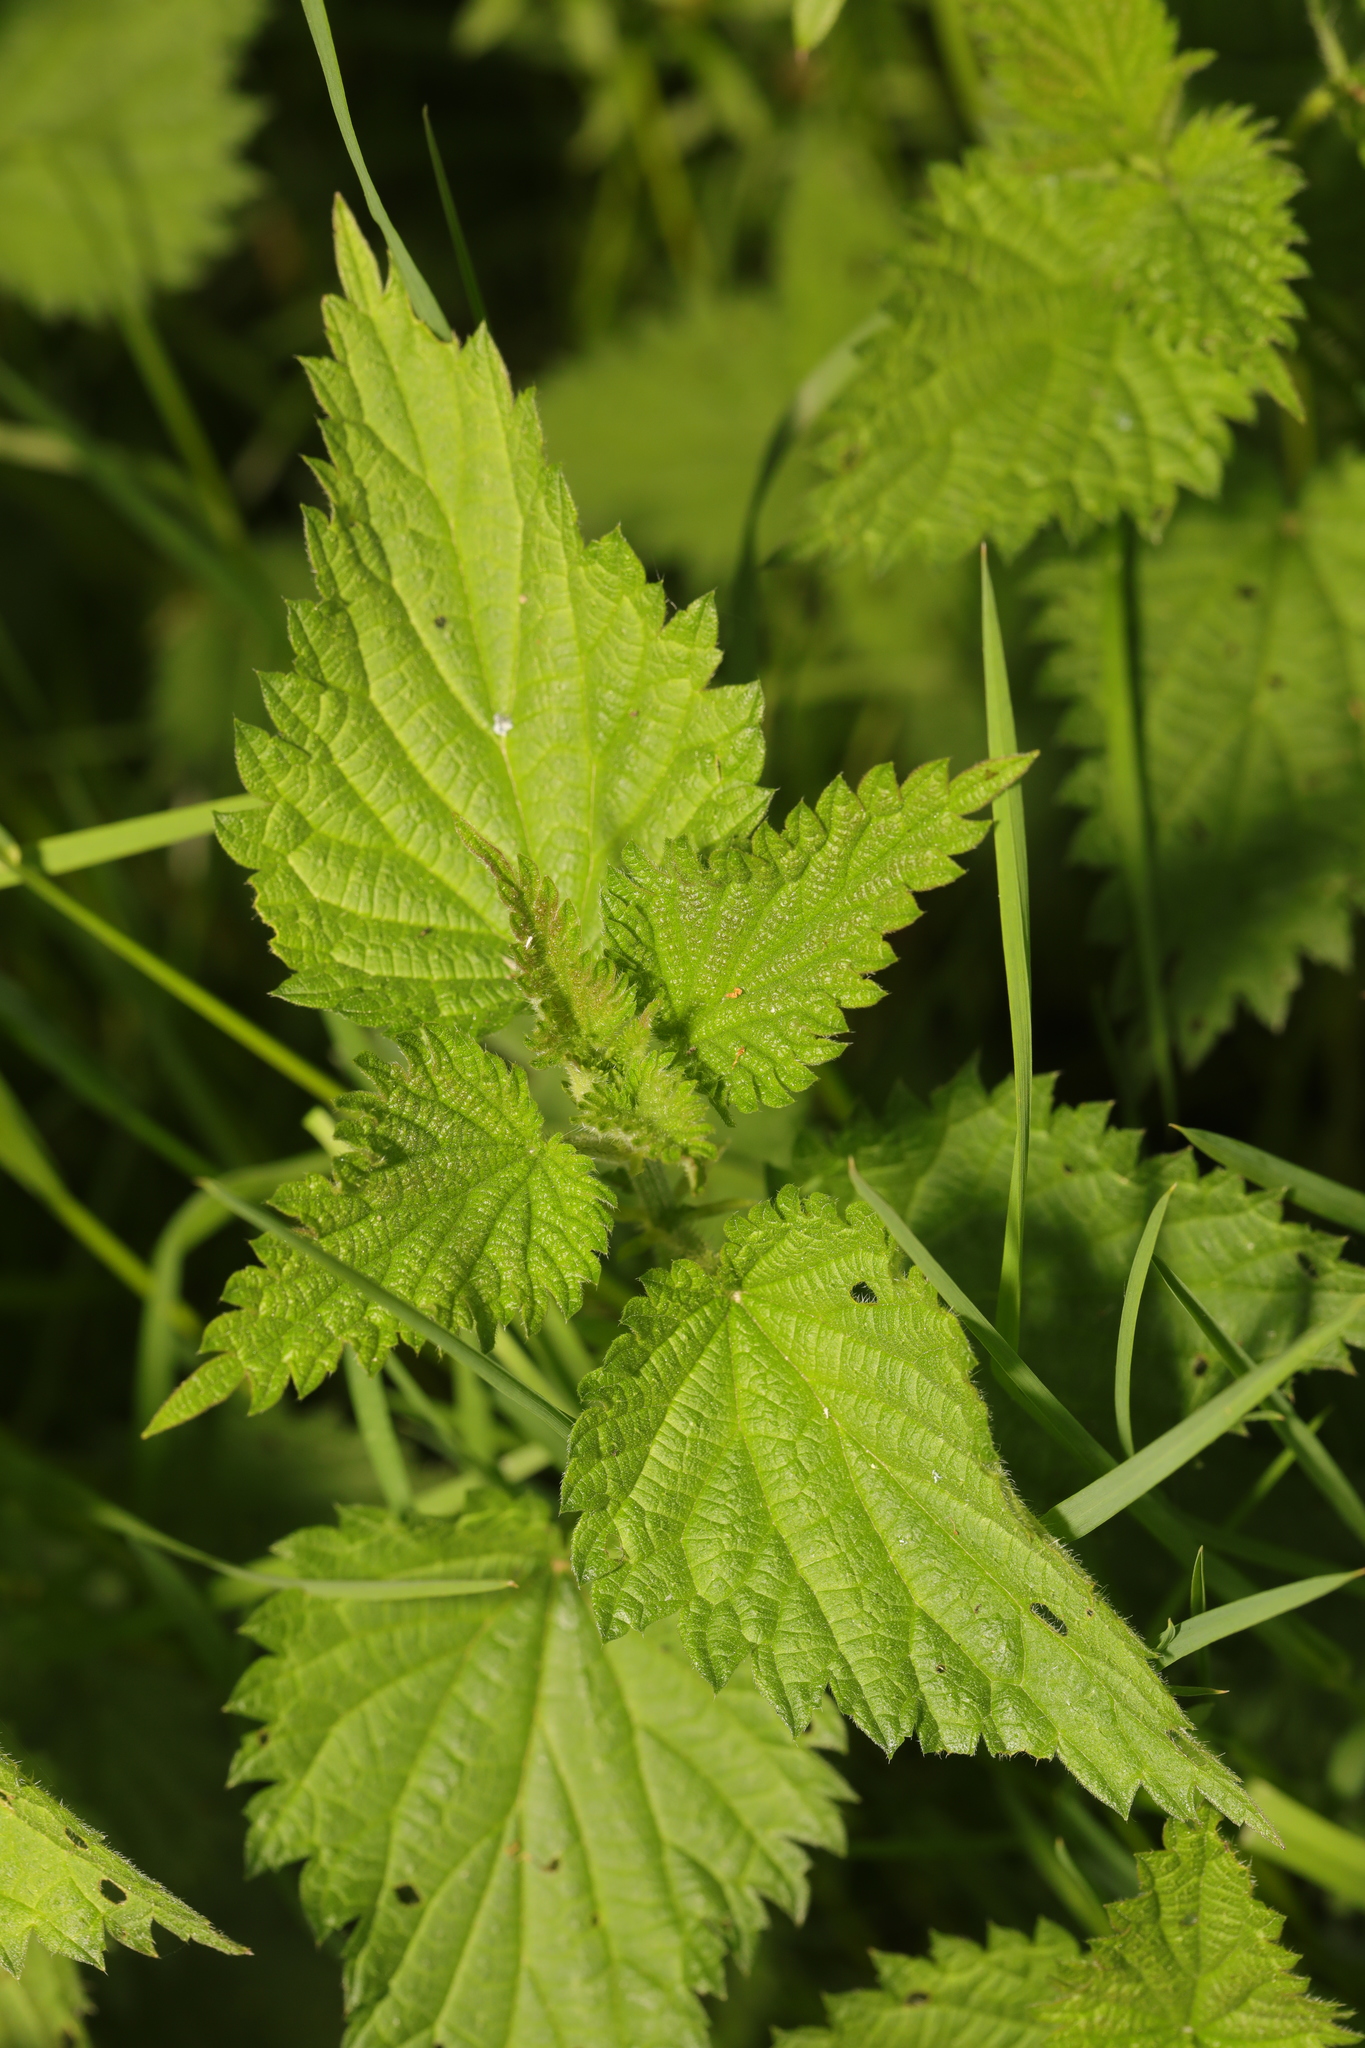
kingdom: Plantae
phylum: Tracheophyta
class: Magnoliopsida
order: Rosales
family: Urticaceae
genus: Urtica
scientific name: Urtica dioica
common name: Common nettle
